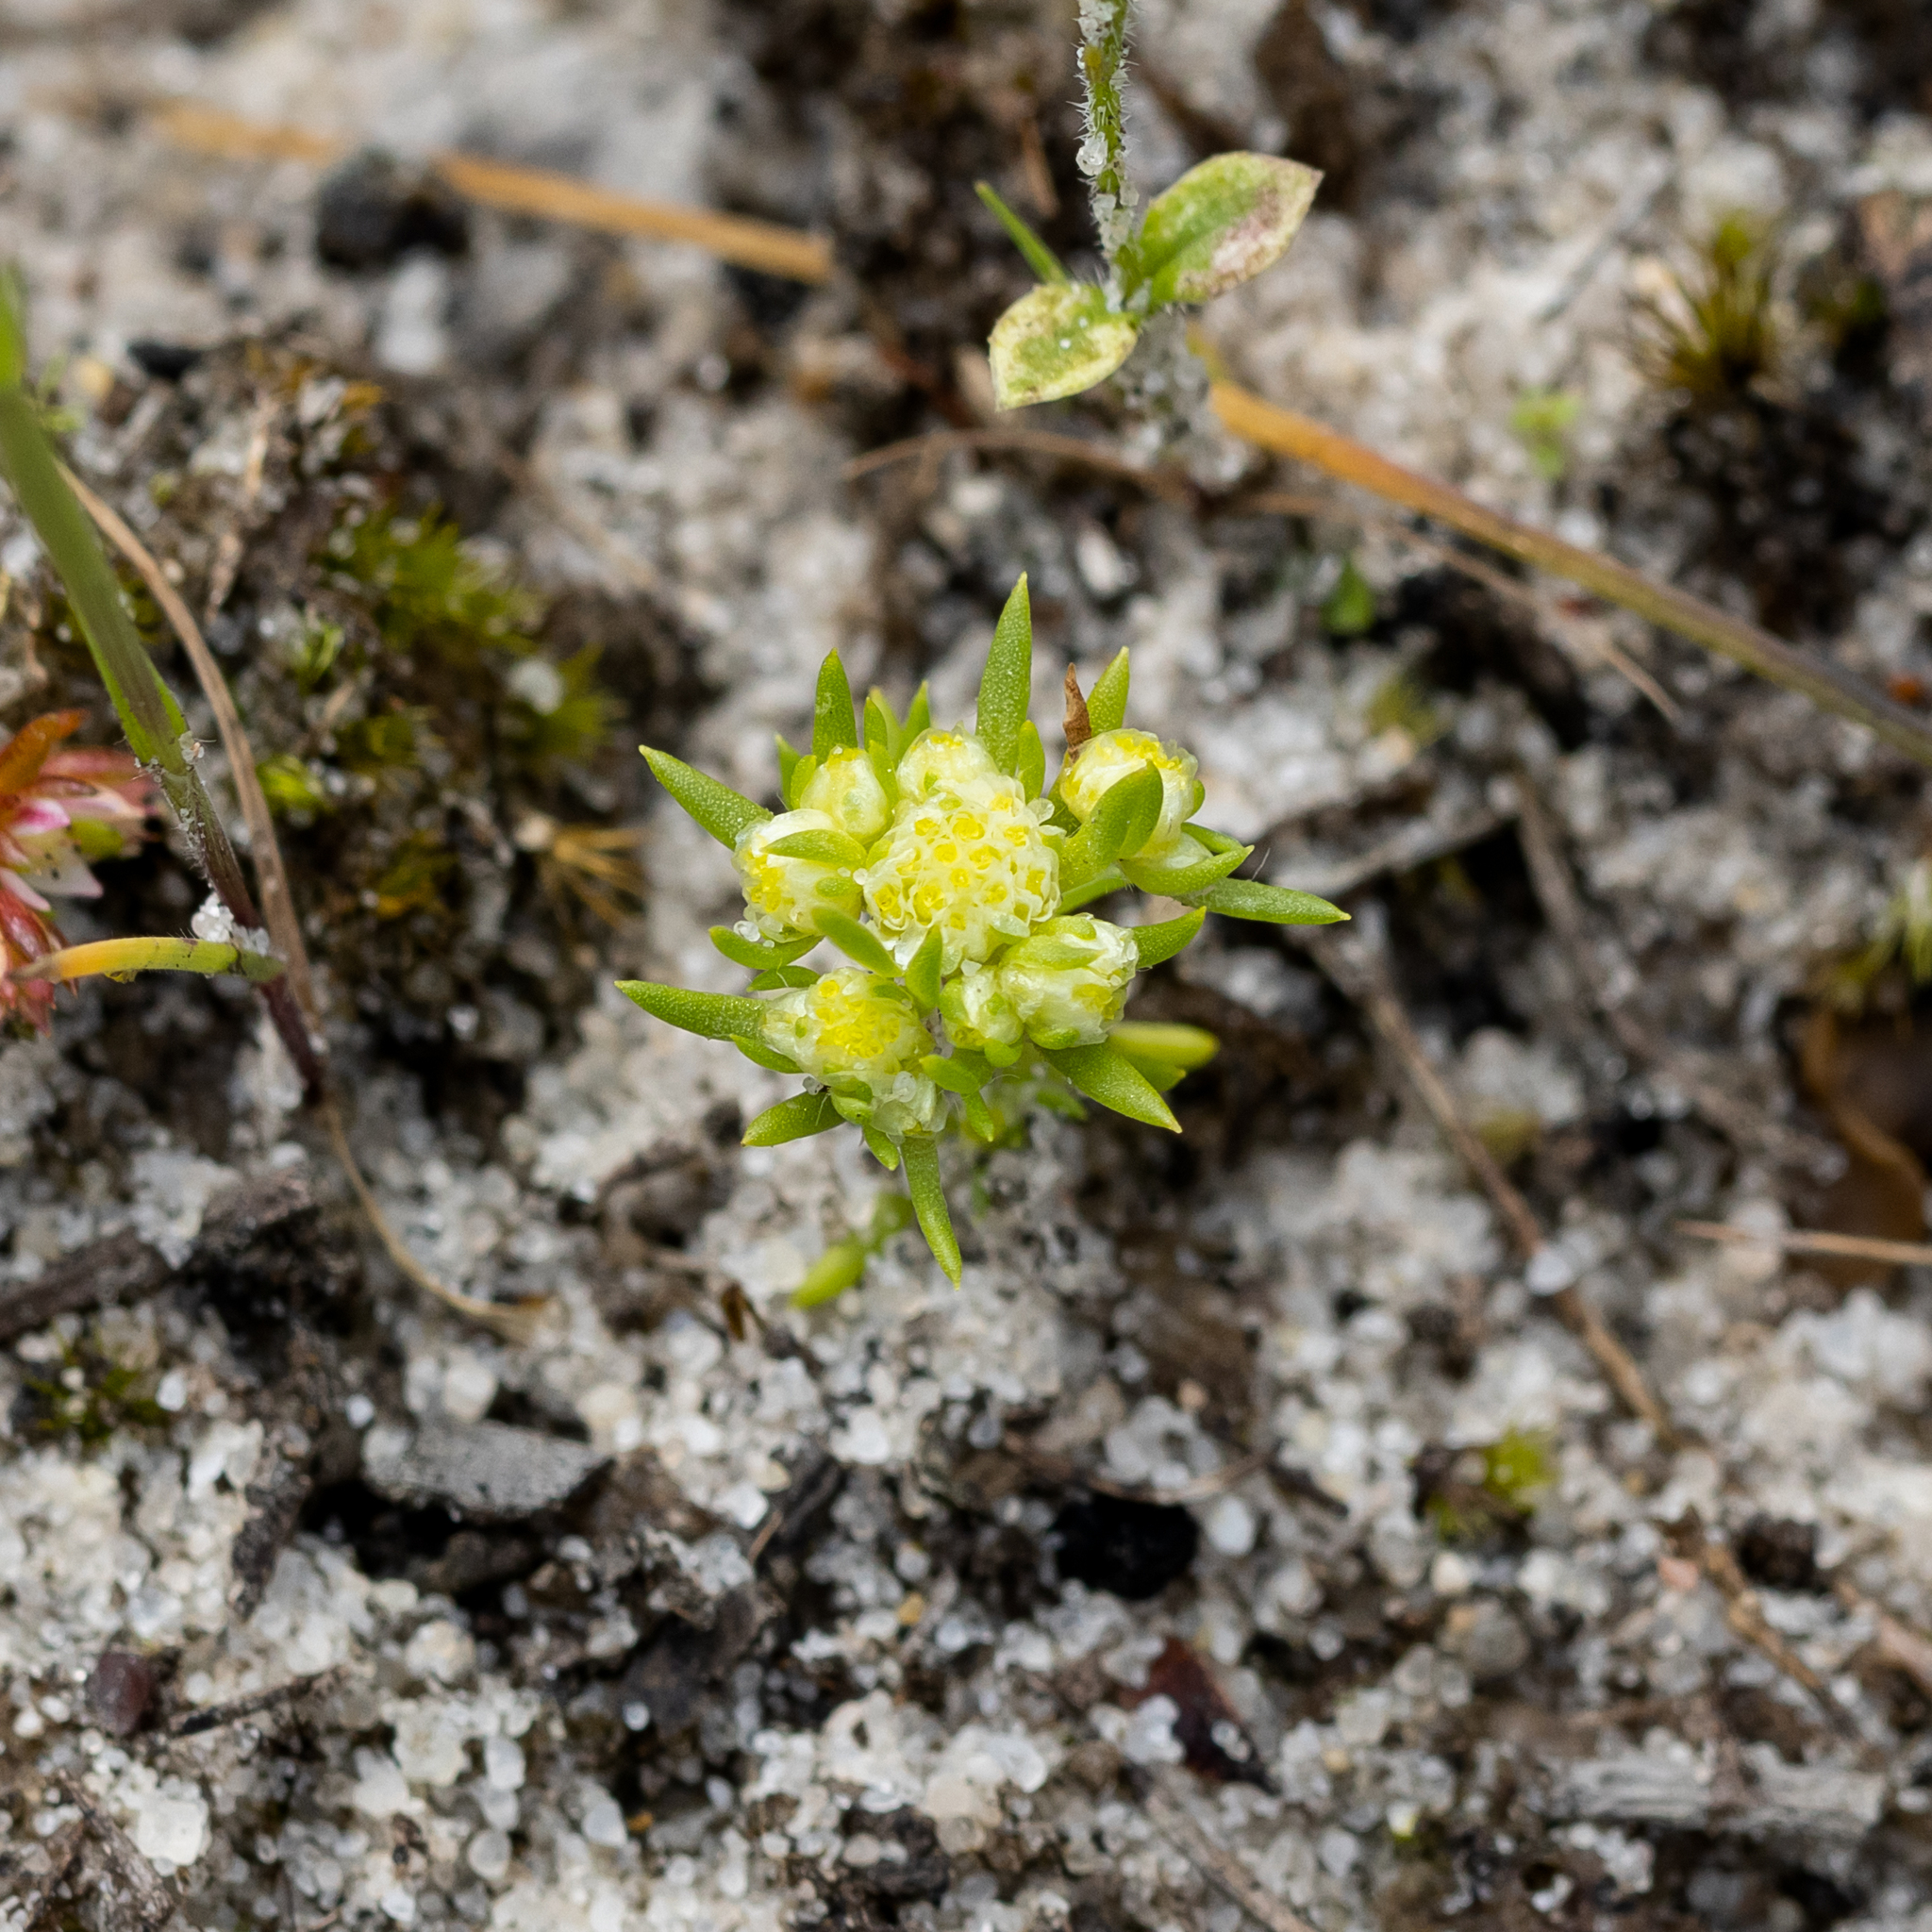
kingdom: Plantae
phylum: Tracheophyta
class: Magnoliopsida
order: Asterales
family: Asteraceae
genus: Siloxerus
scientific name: Siloxerus multiflorus
